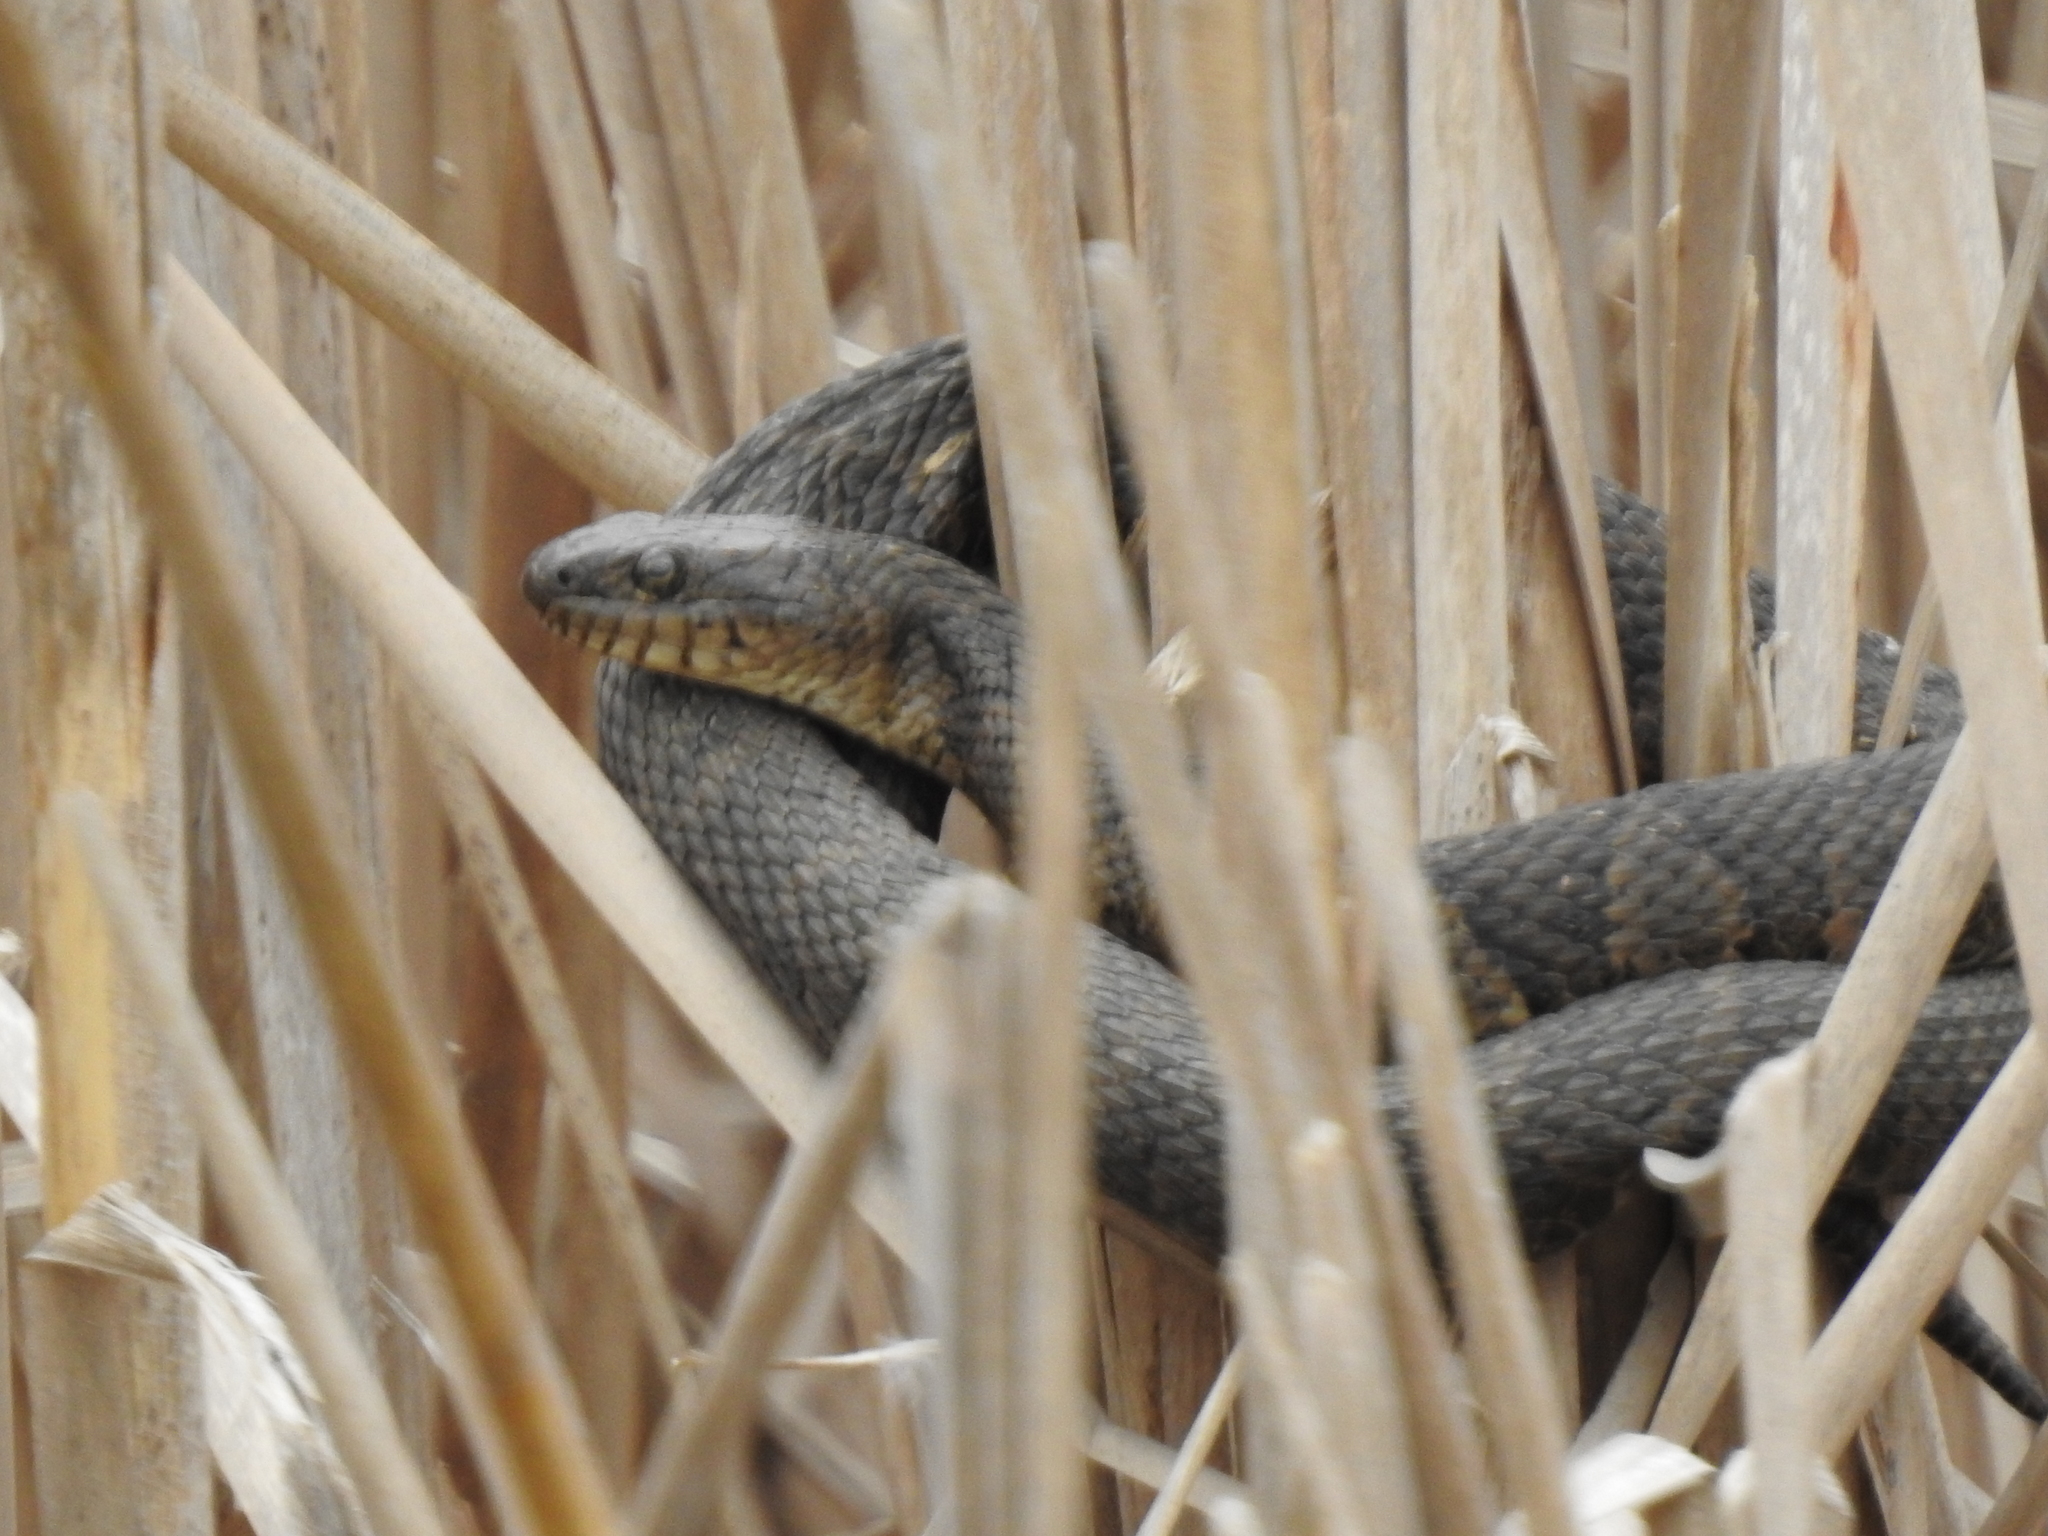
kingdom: Animalia
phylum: Chordata
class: Squamata
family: Colubridae
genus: Nerodia
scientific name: Nerodia sipedon
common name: Northern water snake
